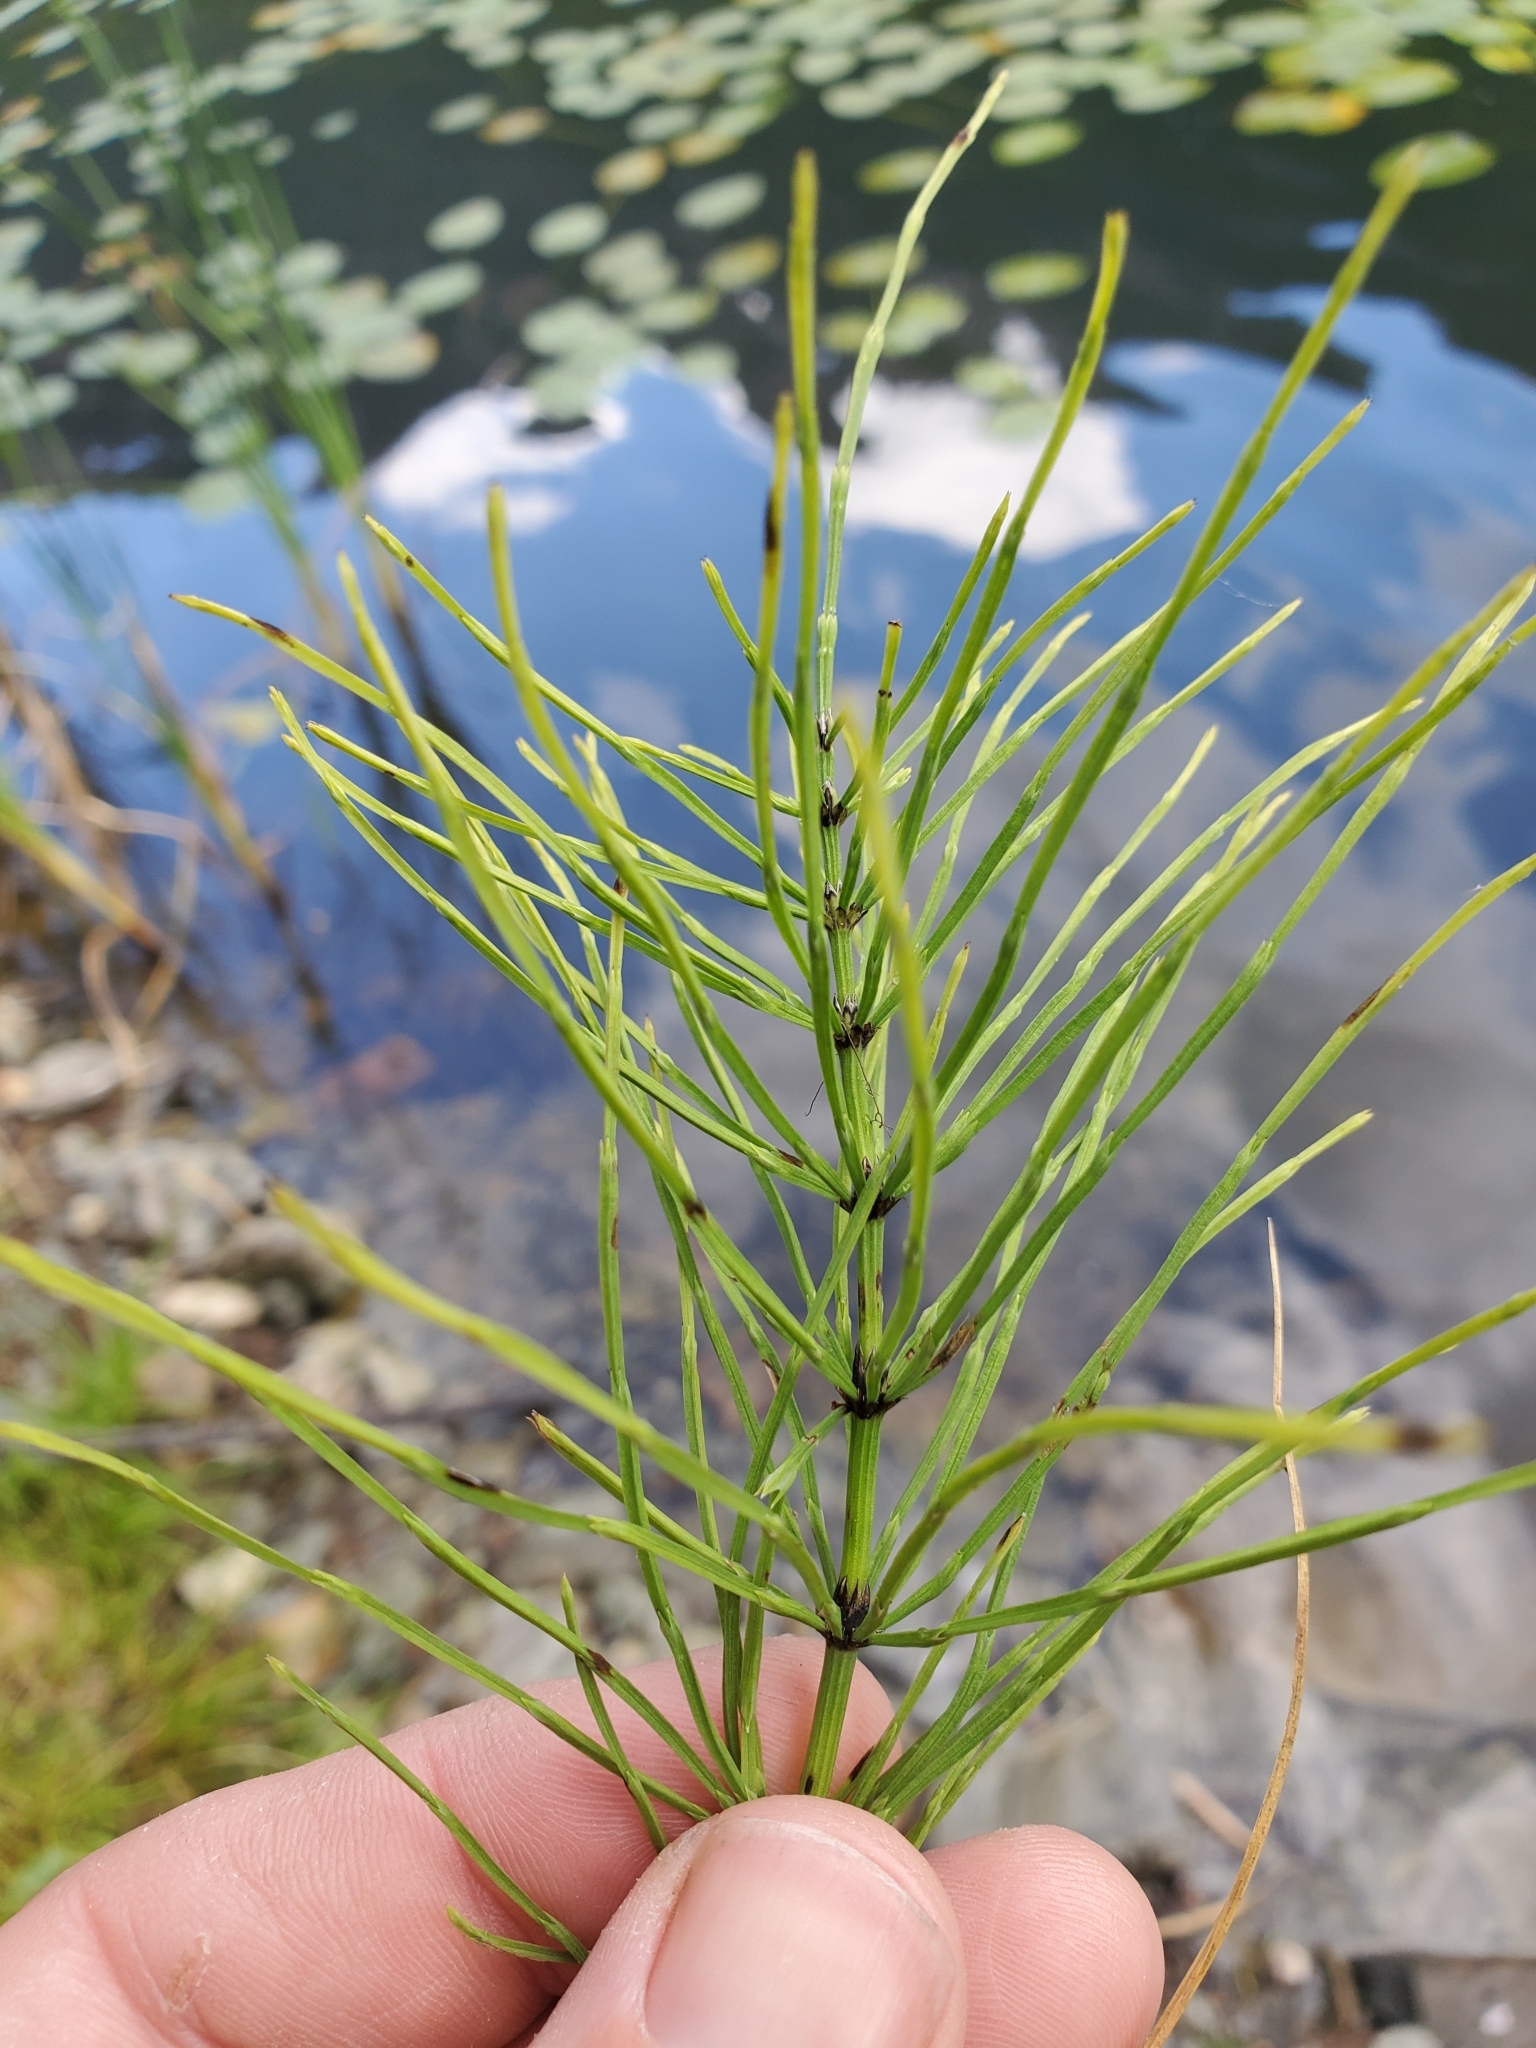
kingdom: Plantae
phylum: Tracheophyta
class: Polypodiopsida
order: Equisetales
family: Equisetaceae
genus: Equisetum
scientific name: Equisetum arvense
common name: Field horsetail
